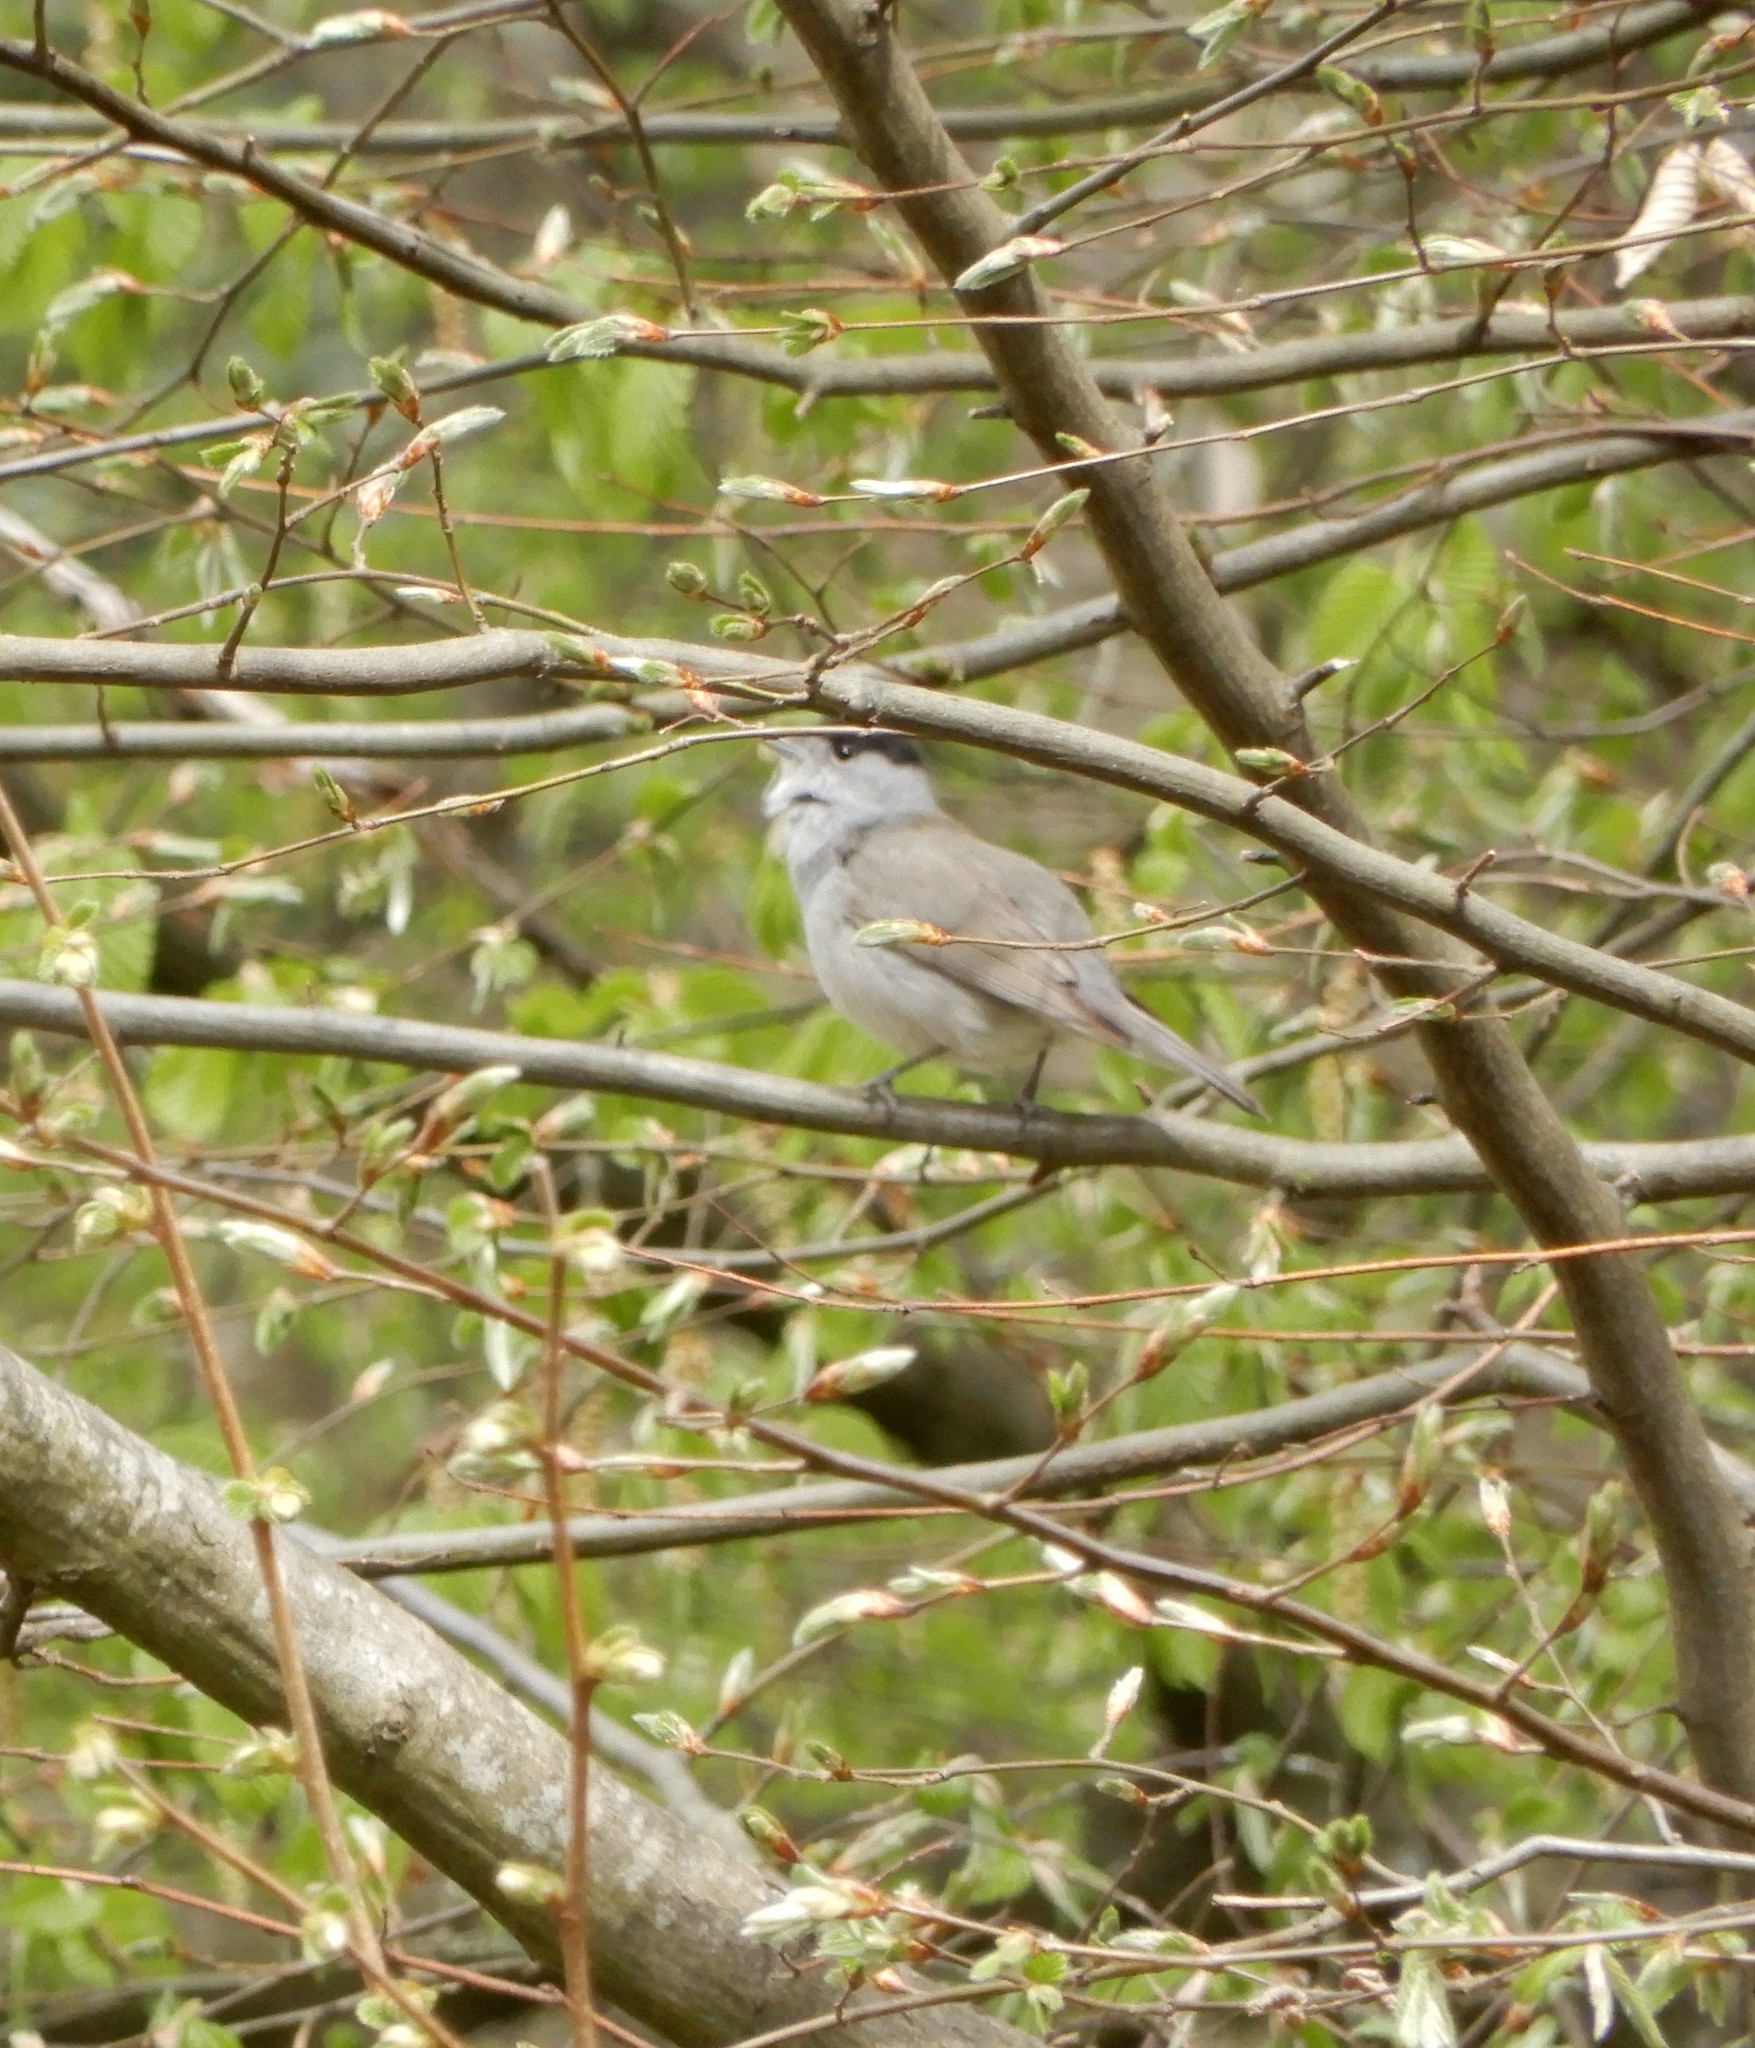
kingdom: Animalia
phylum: Chordata
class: Aves
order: Passeriformes
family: Sylviidae
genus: Sylvia
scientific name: Sylvia atricapilla
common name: Eurasian blackcap
